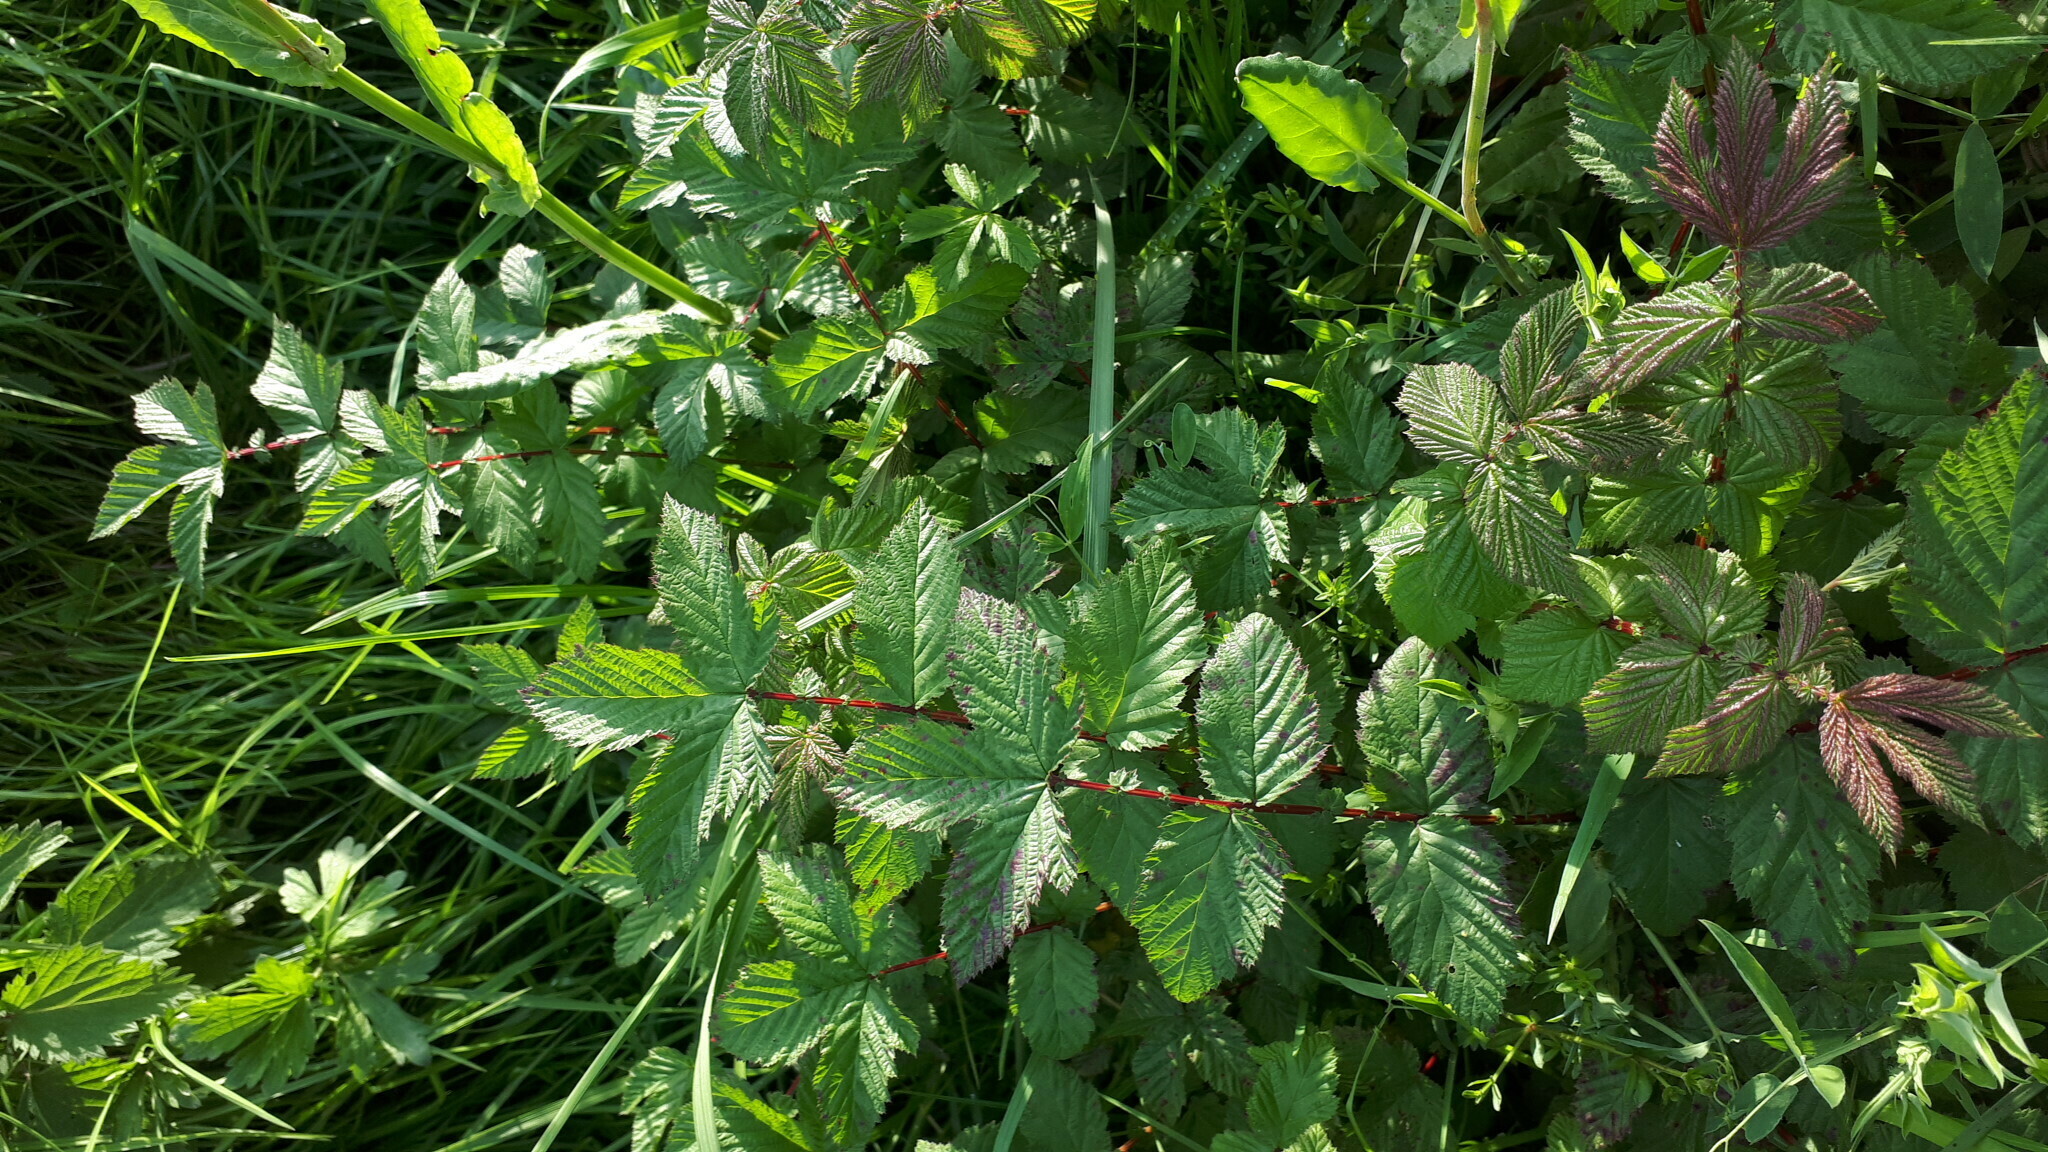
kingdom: Plantae
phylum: Tracheophyta
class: Magnoliopsida
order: Rosales
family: Rosaceae
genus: Filipendula
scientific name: Filipendula ulmaria
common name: Meadowsweet
